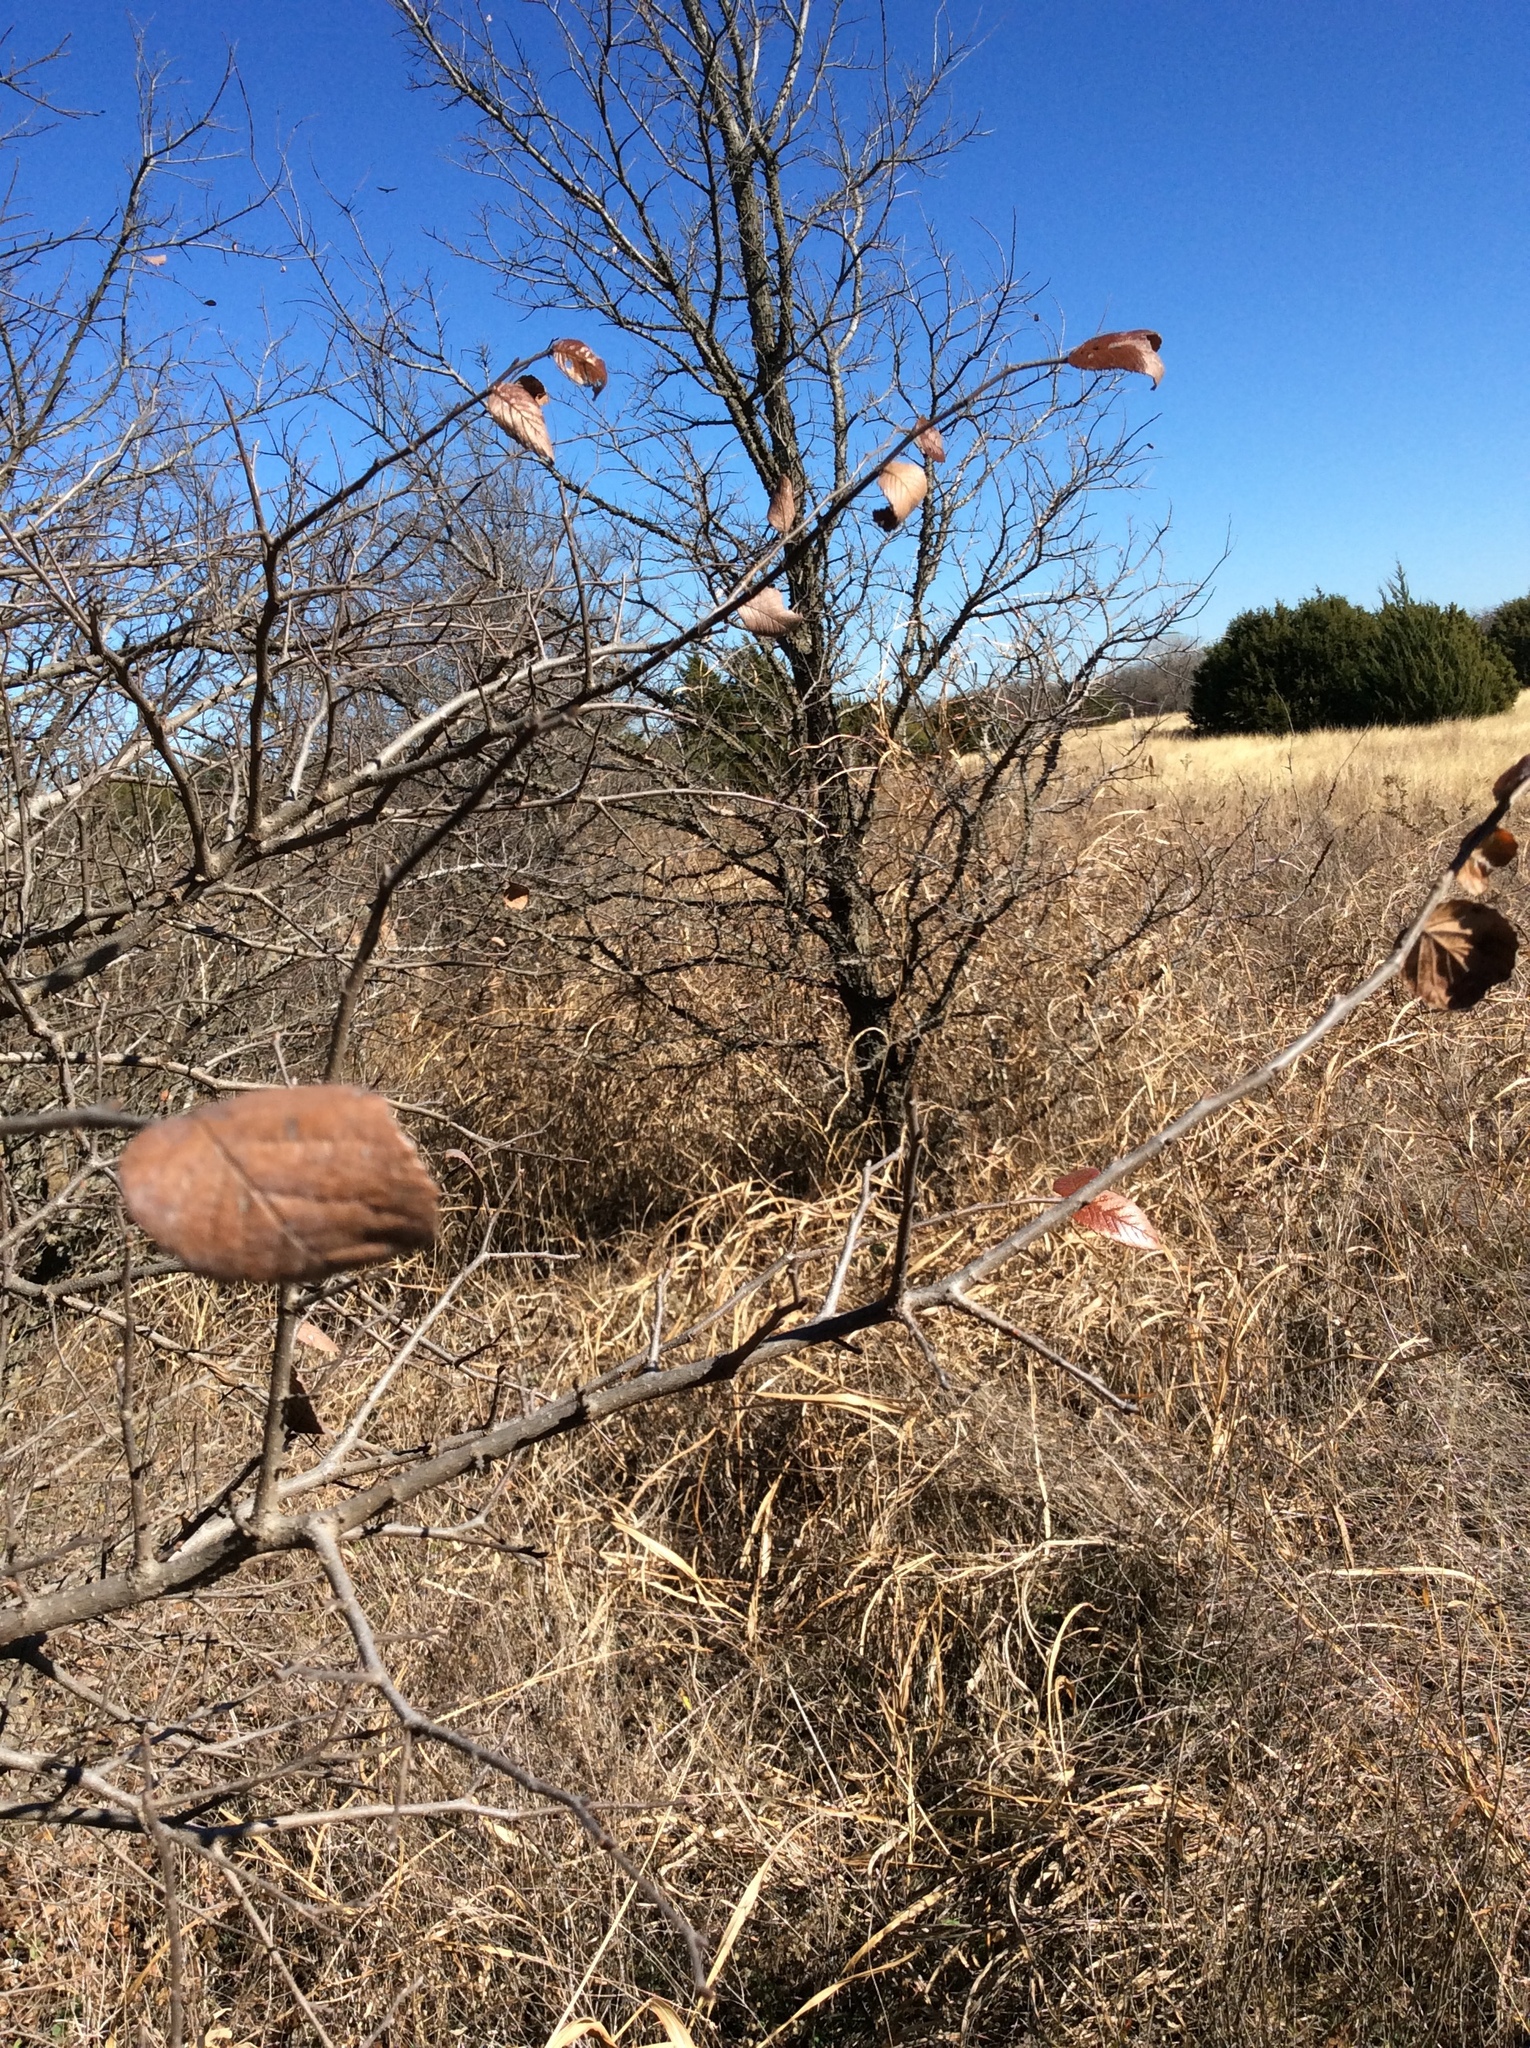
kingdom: Plantae
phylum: Tracheophyta
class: Magnoliopsida
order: Rosales
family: Ulmaceae
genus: Ulmus
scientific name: Ulmus crassifolia
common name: Basket elm
